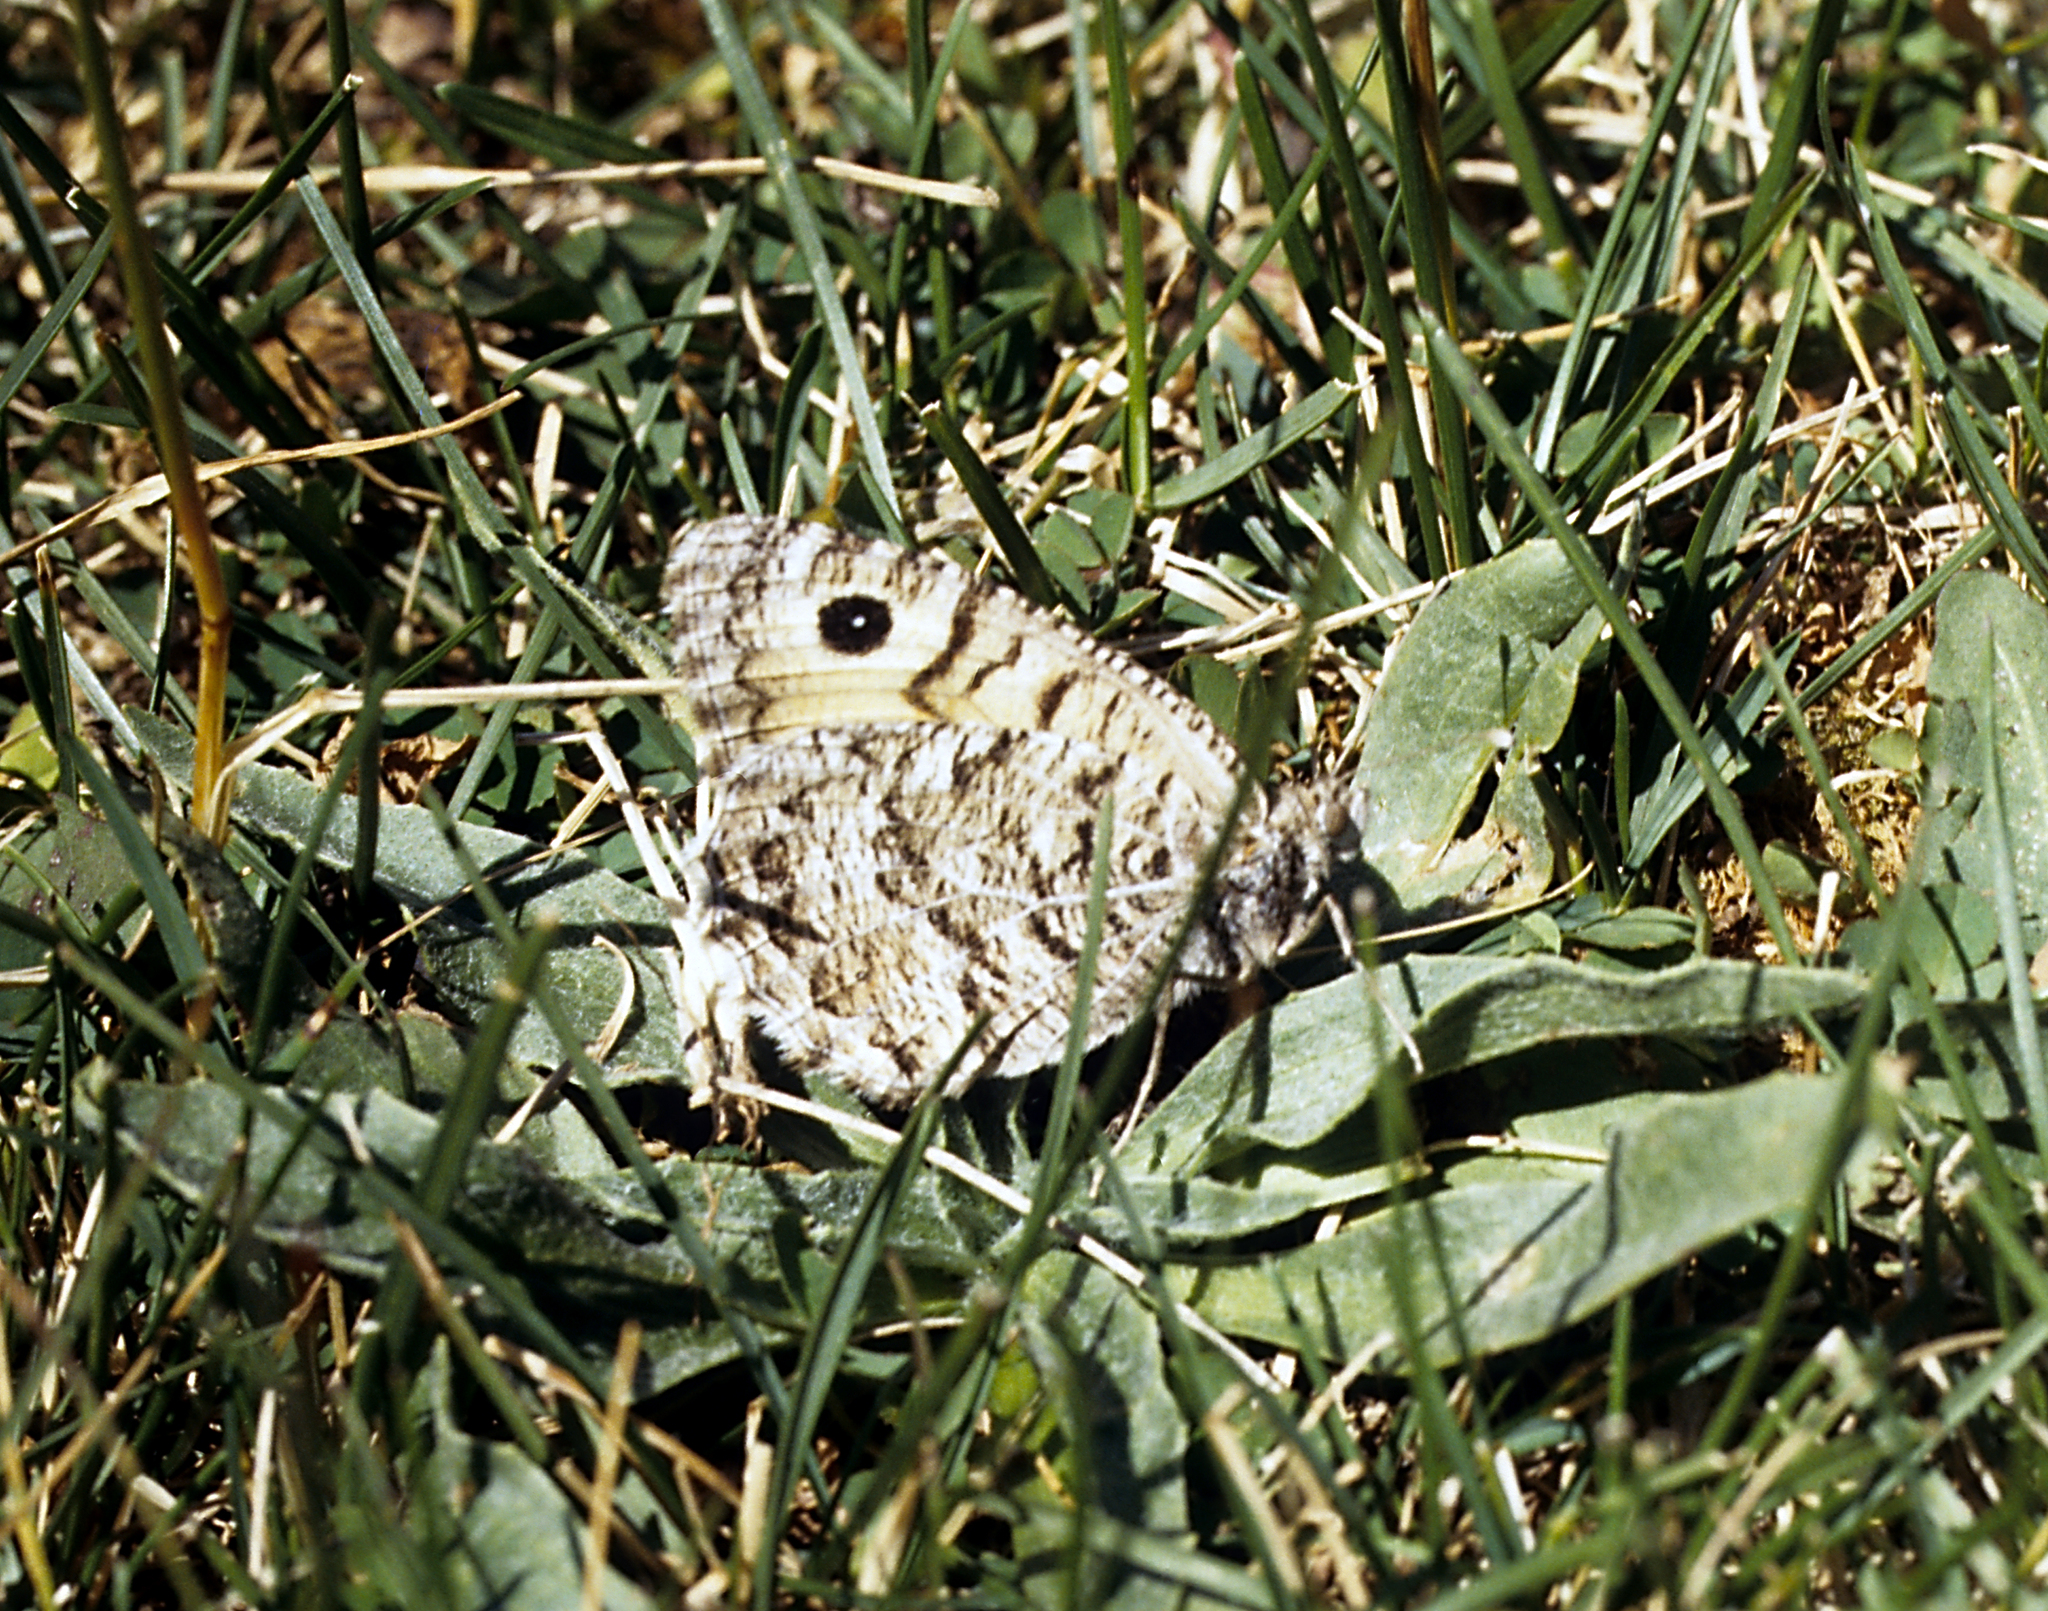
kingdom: Animalia
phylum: Arthropoda
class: Insecta
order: Lepidoptera
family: Nymphalidae
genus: Pseudochazara
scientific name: Pseudochazara hippolyte
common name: Nevada grayling
